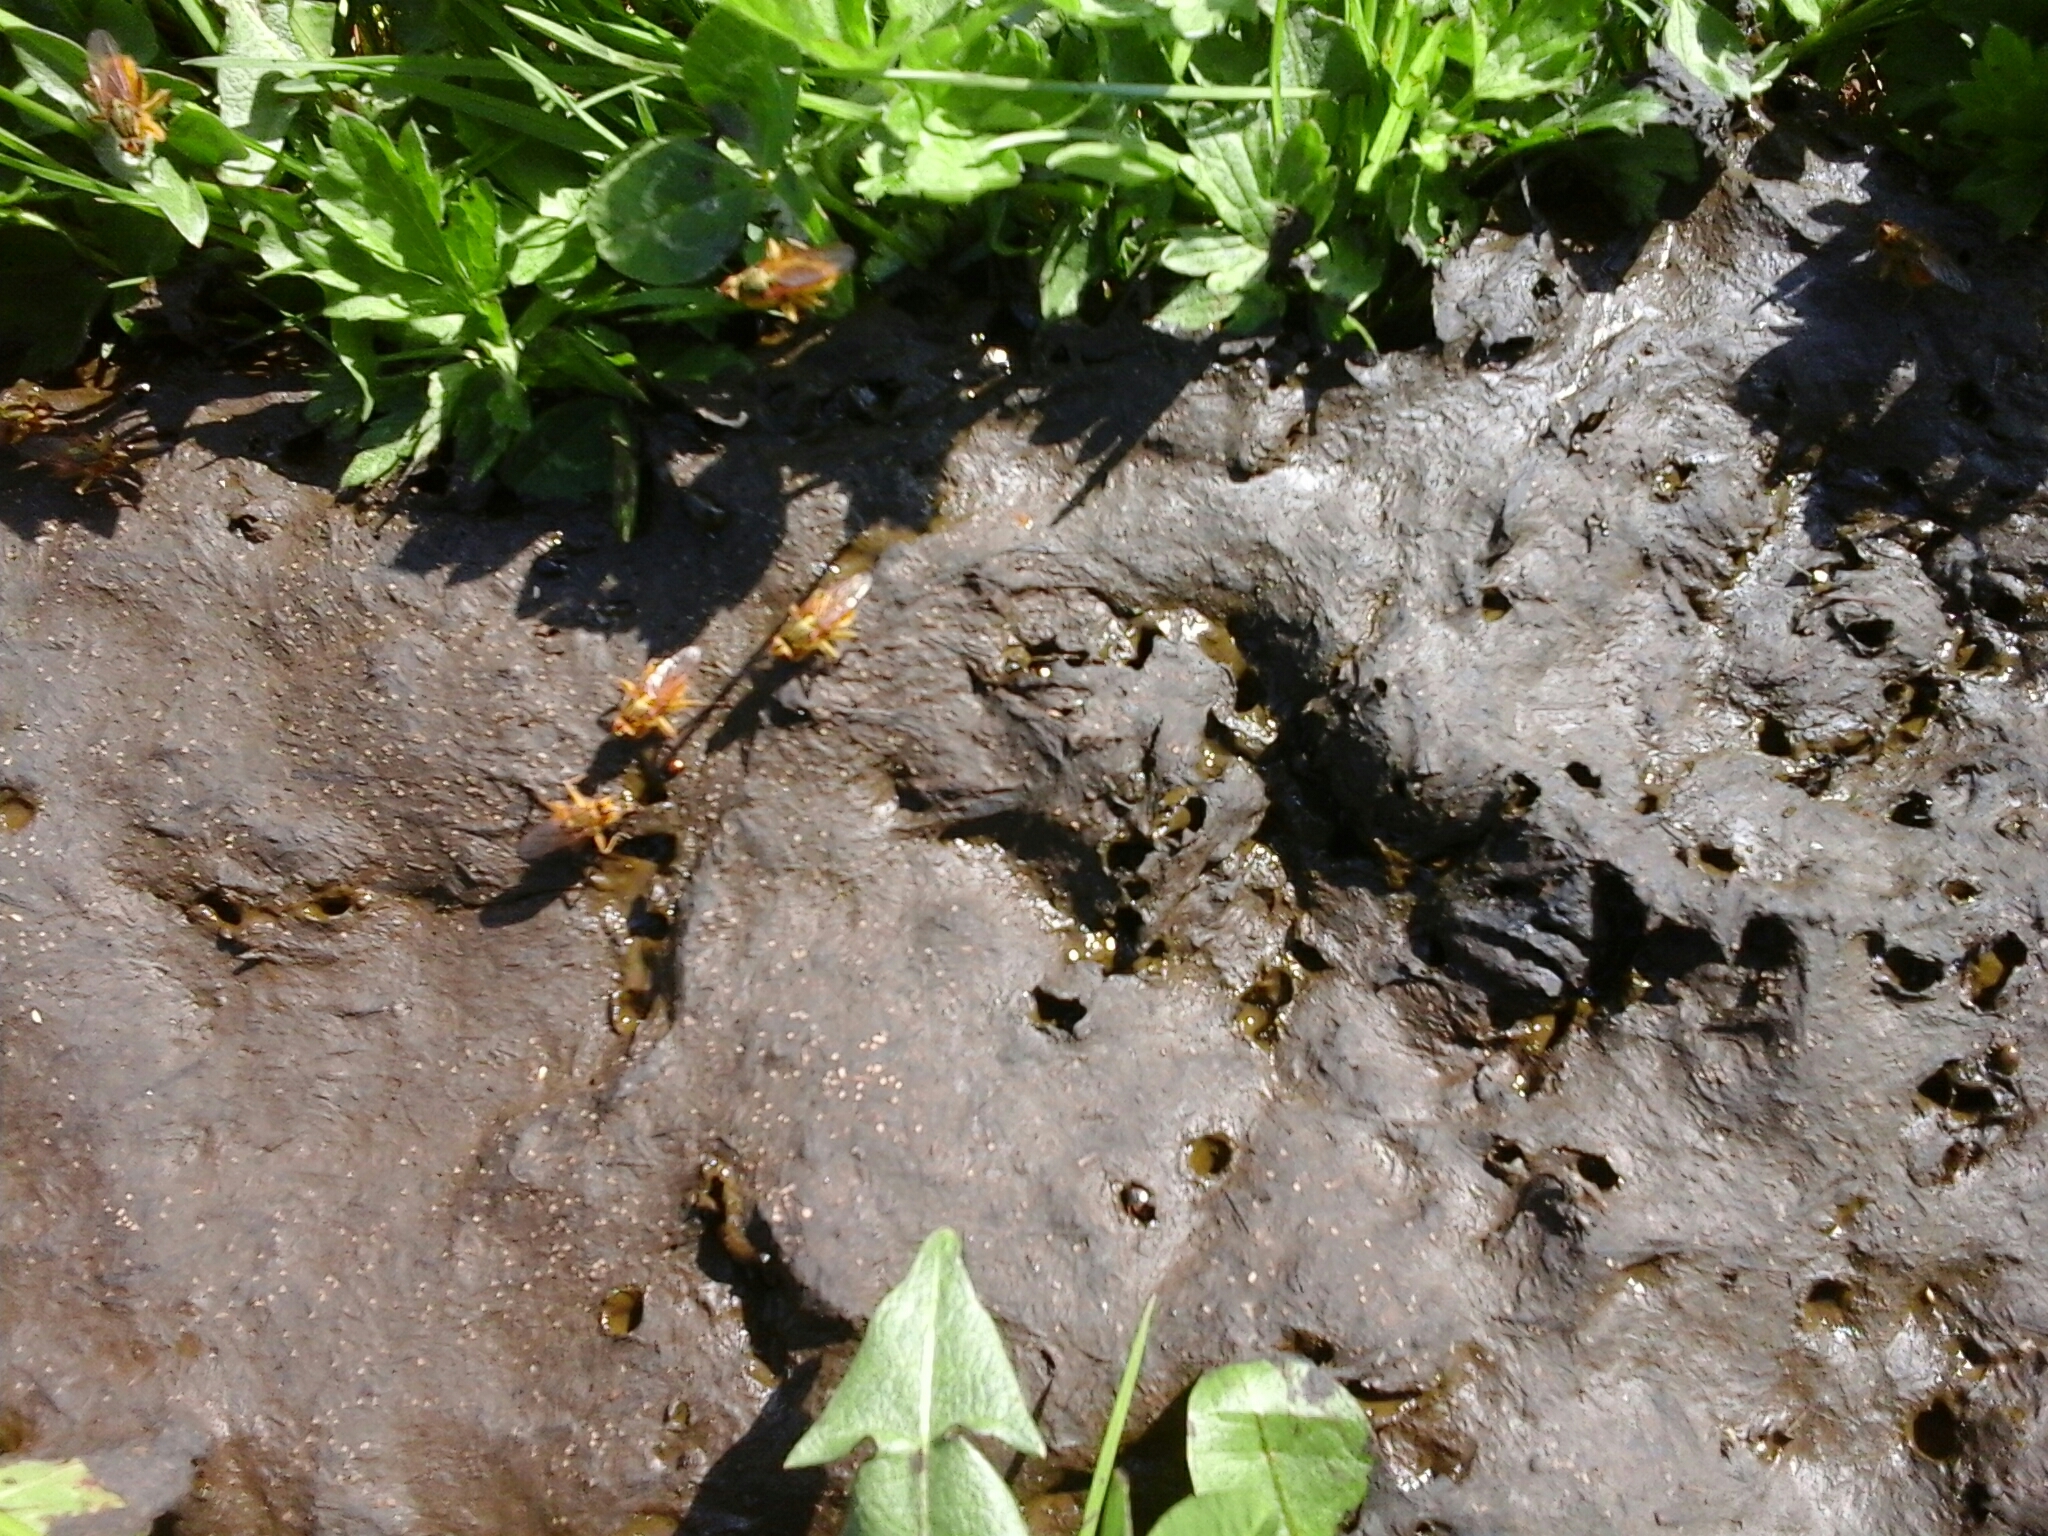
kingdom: Animalia
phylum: Arthropoda
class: Insecta
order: Diptera
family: Scathophagidae
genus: Scathophaga
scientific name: Scathophaga stercoraria
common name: Yellow dung fly
